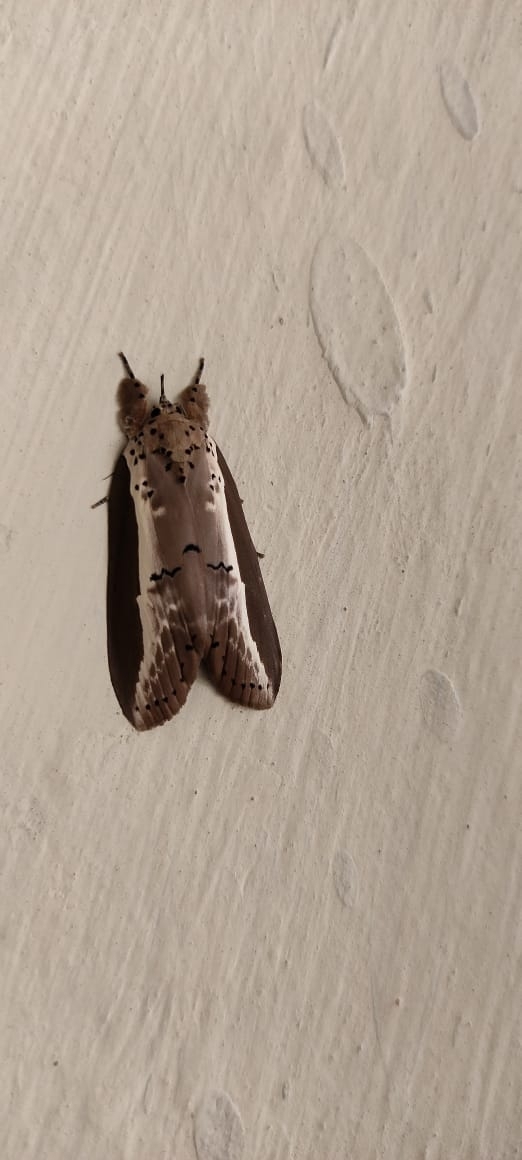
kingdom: Animalia
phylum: Arthropoda
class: Insecta
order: Lepidoptera
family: Nolidae
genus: Eligma
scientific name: Eligma narcissus
